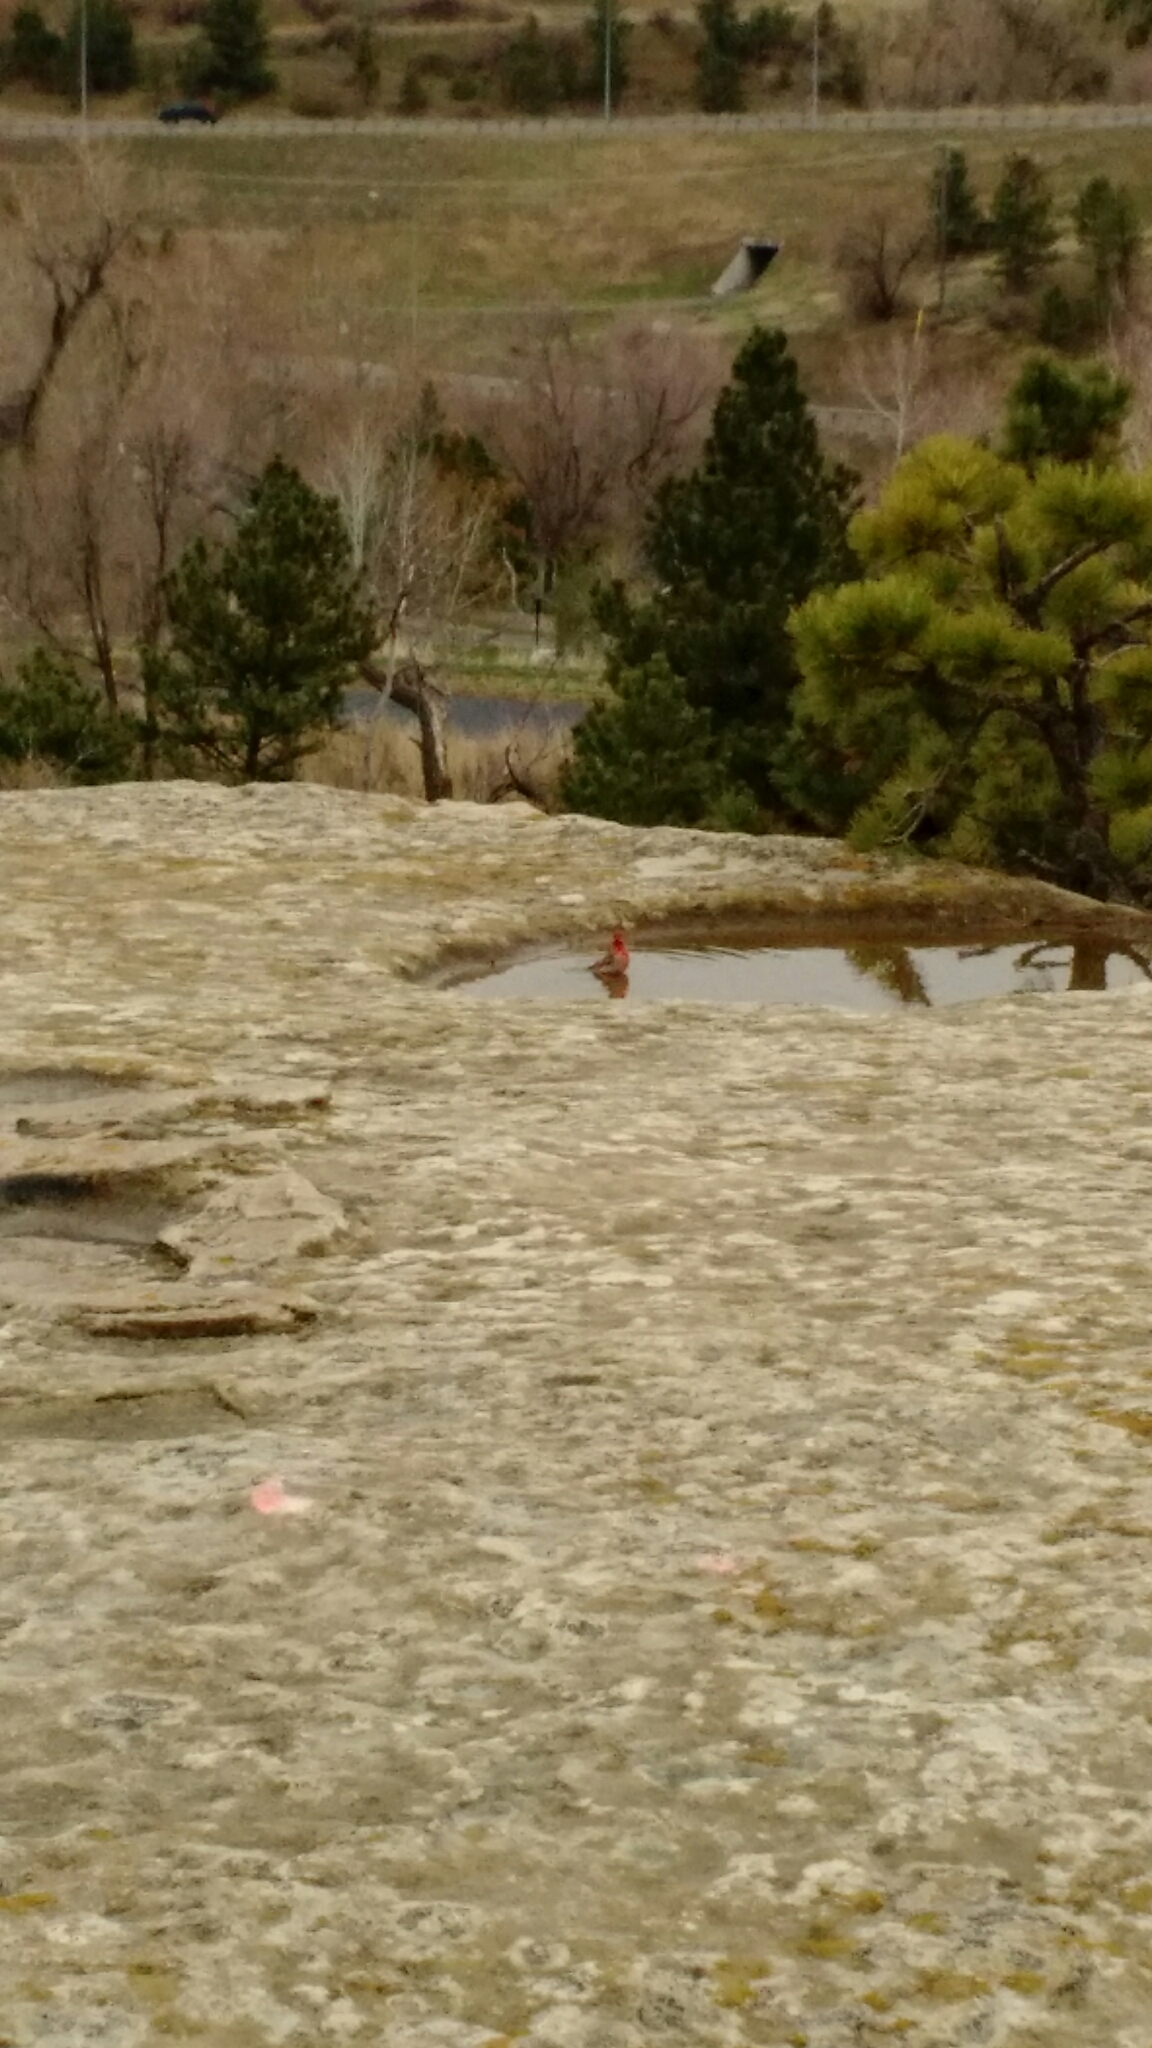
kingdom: Animalia
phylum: Chordata
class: Aves
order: Passeriformes
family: Fringillidae
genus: Haemorhous
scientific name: Haemorhous mexicanus
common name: House finch
